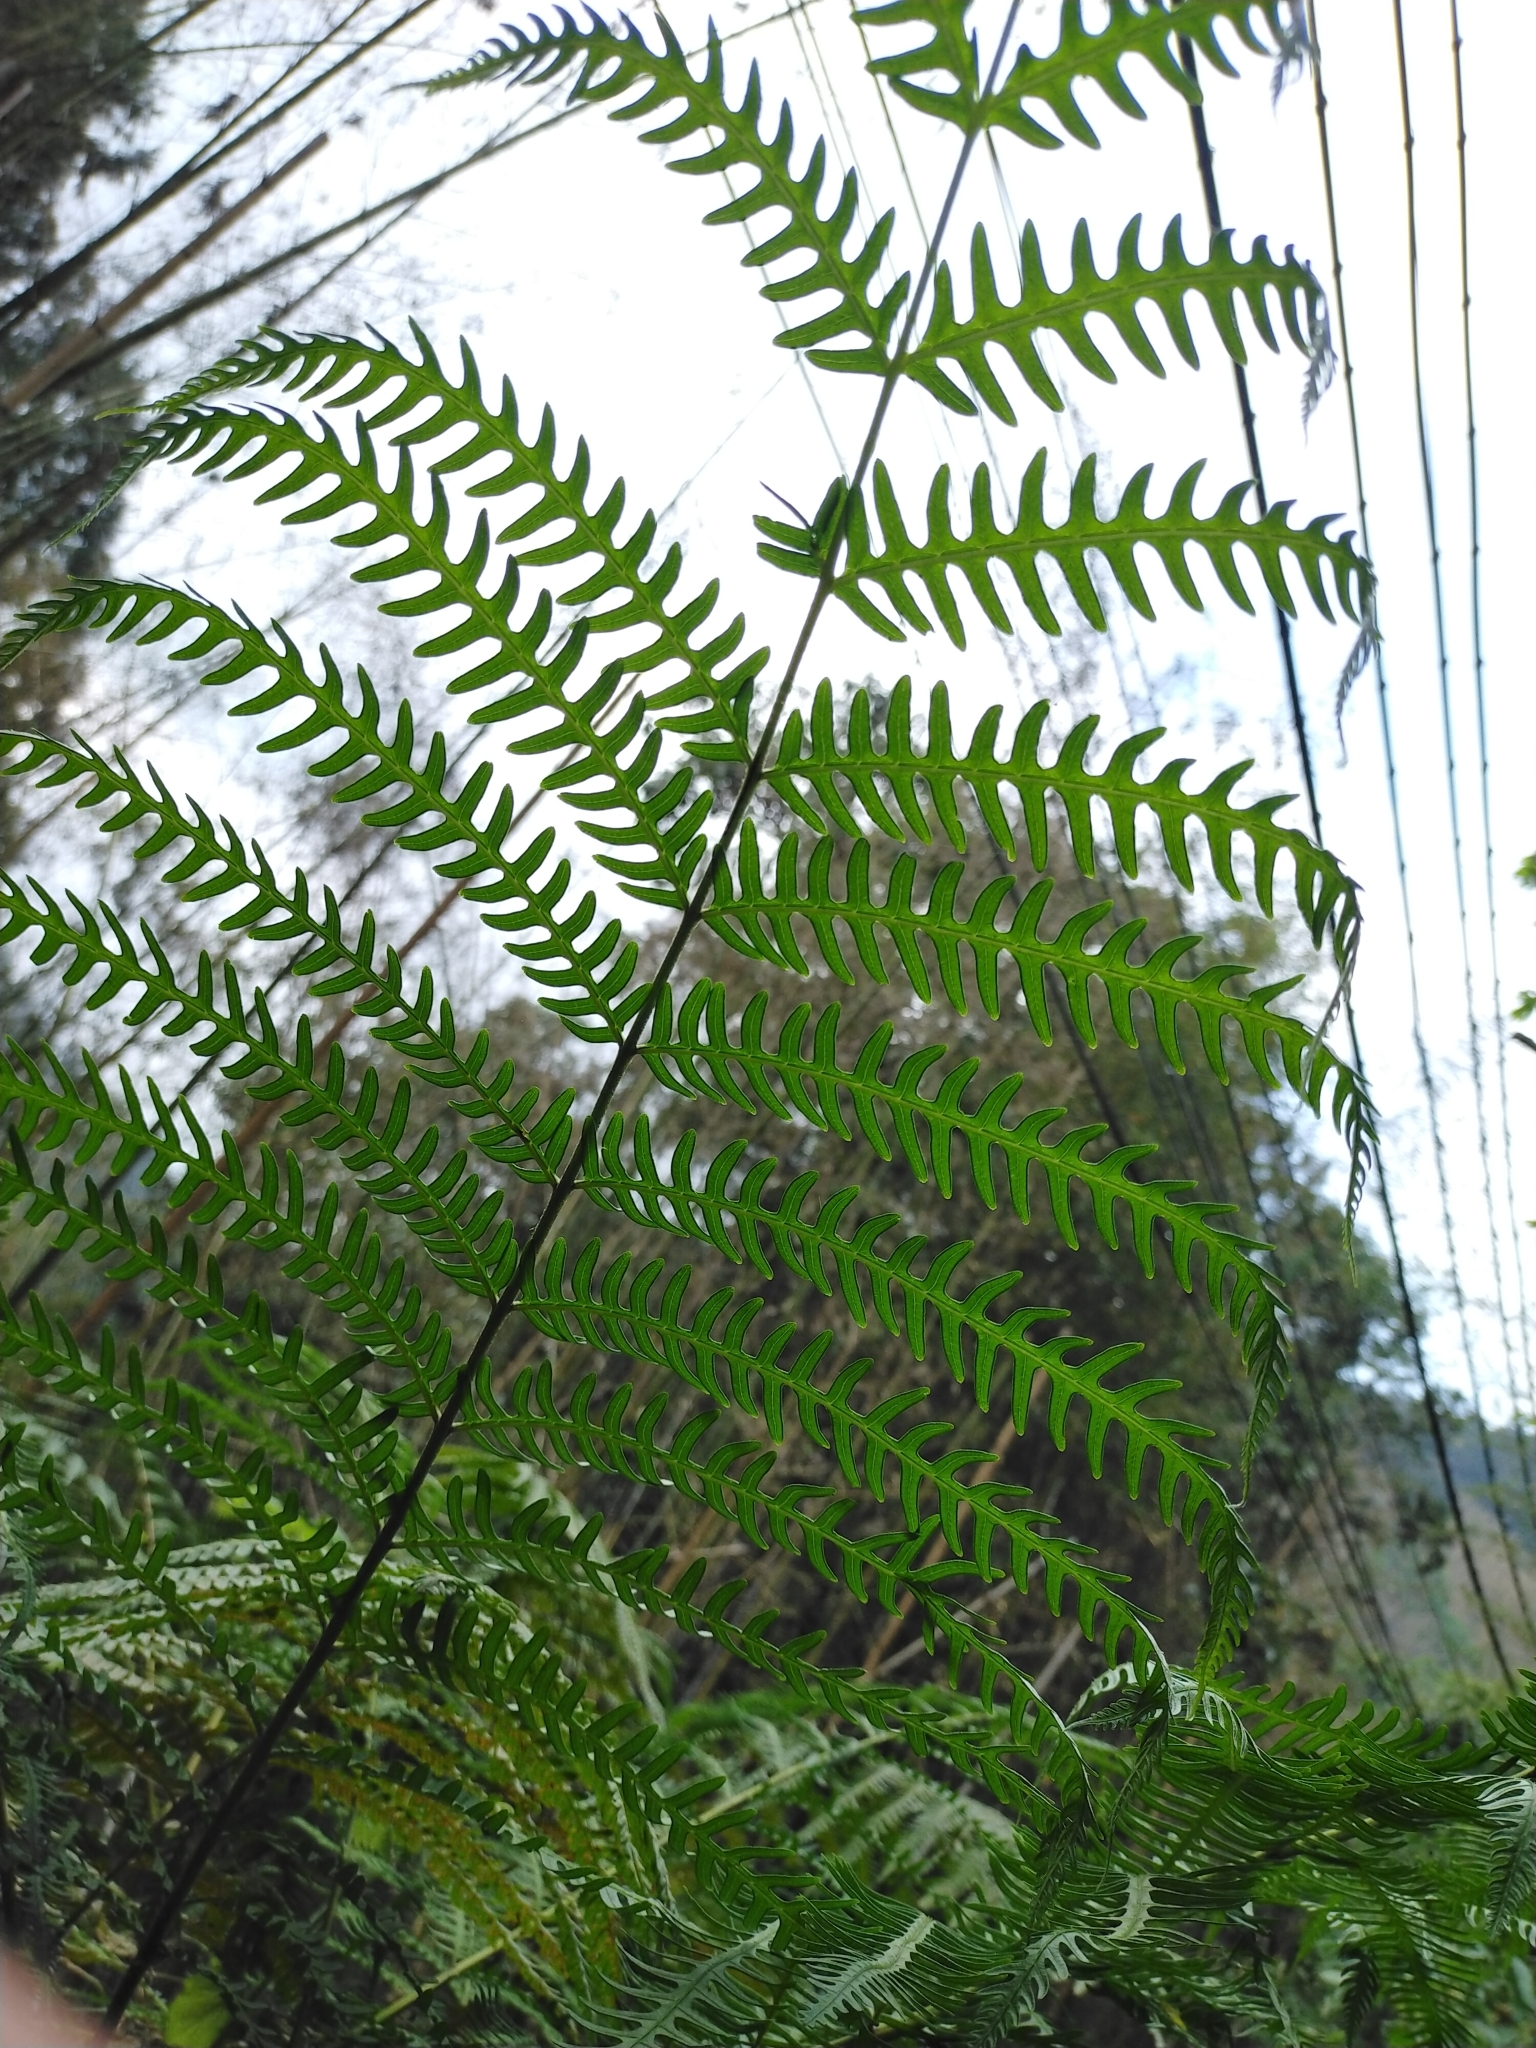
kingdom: Plantae
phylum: Tracheophyta
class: Polypodiopsida
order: Polypodiales
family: Pteridaceae
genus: Pteris
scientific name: Pteris wallichiana
